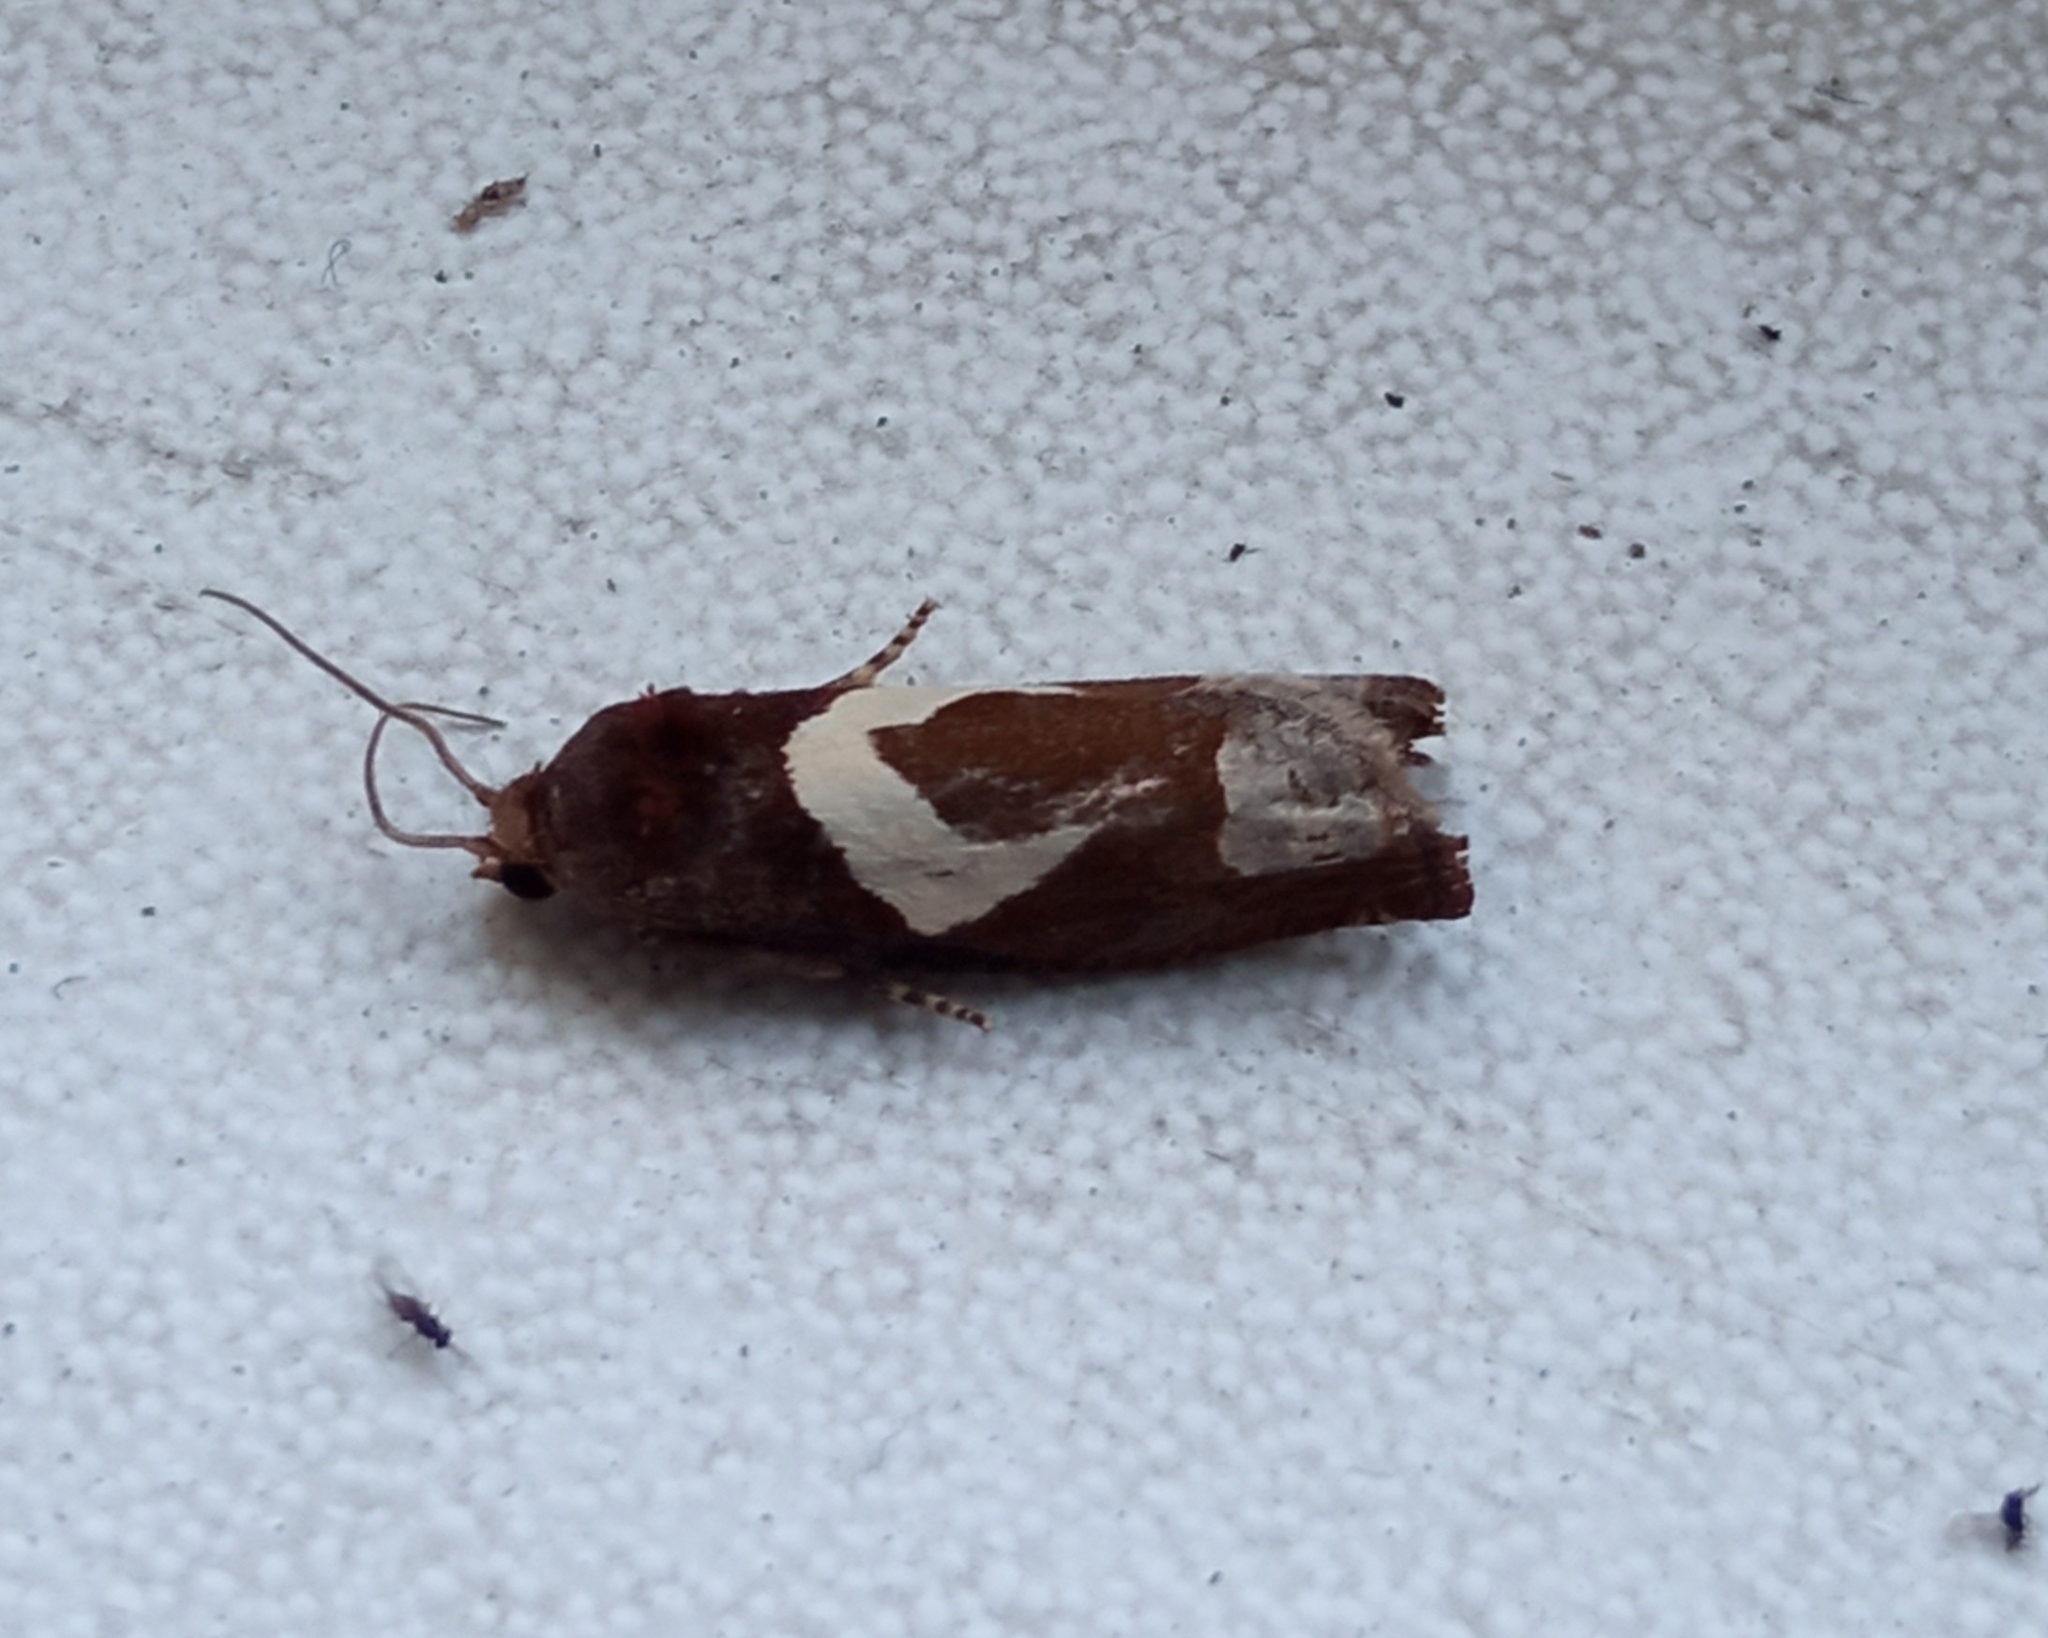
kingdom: Animalia
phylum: Arthropoda
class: Insecta
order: Lepidoptera
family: Tortricidae
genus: Epiblema
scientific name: Epiblema foenella
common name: White-foot bell
